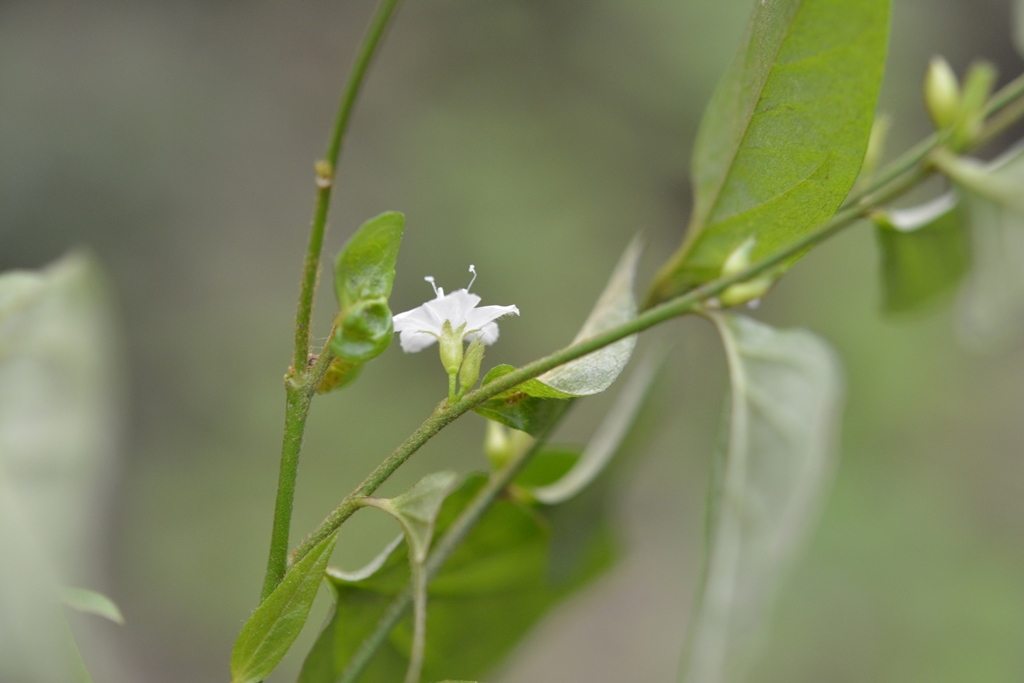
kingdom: Plantae
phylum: Tracheophyta
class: Magnoliopsida
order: Solanales
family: Convolvulaceae
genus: Evolvulus
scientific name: Evolvulus cardiophyllus
